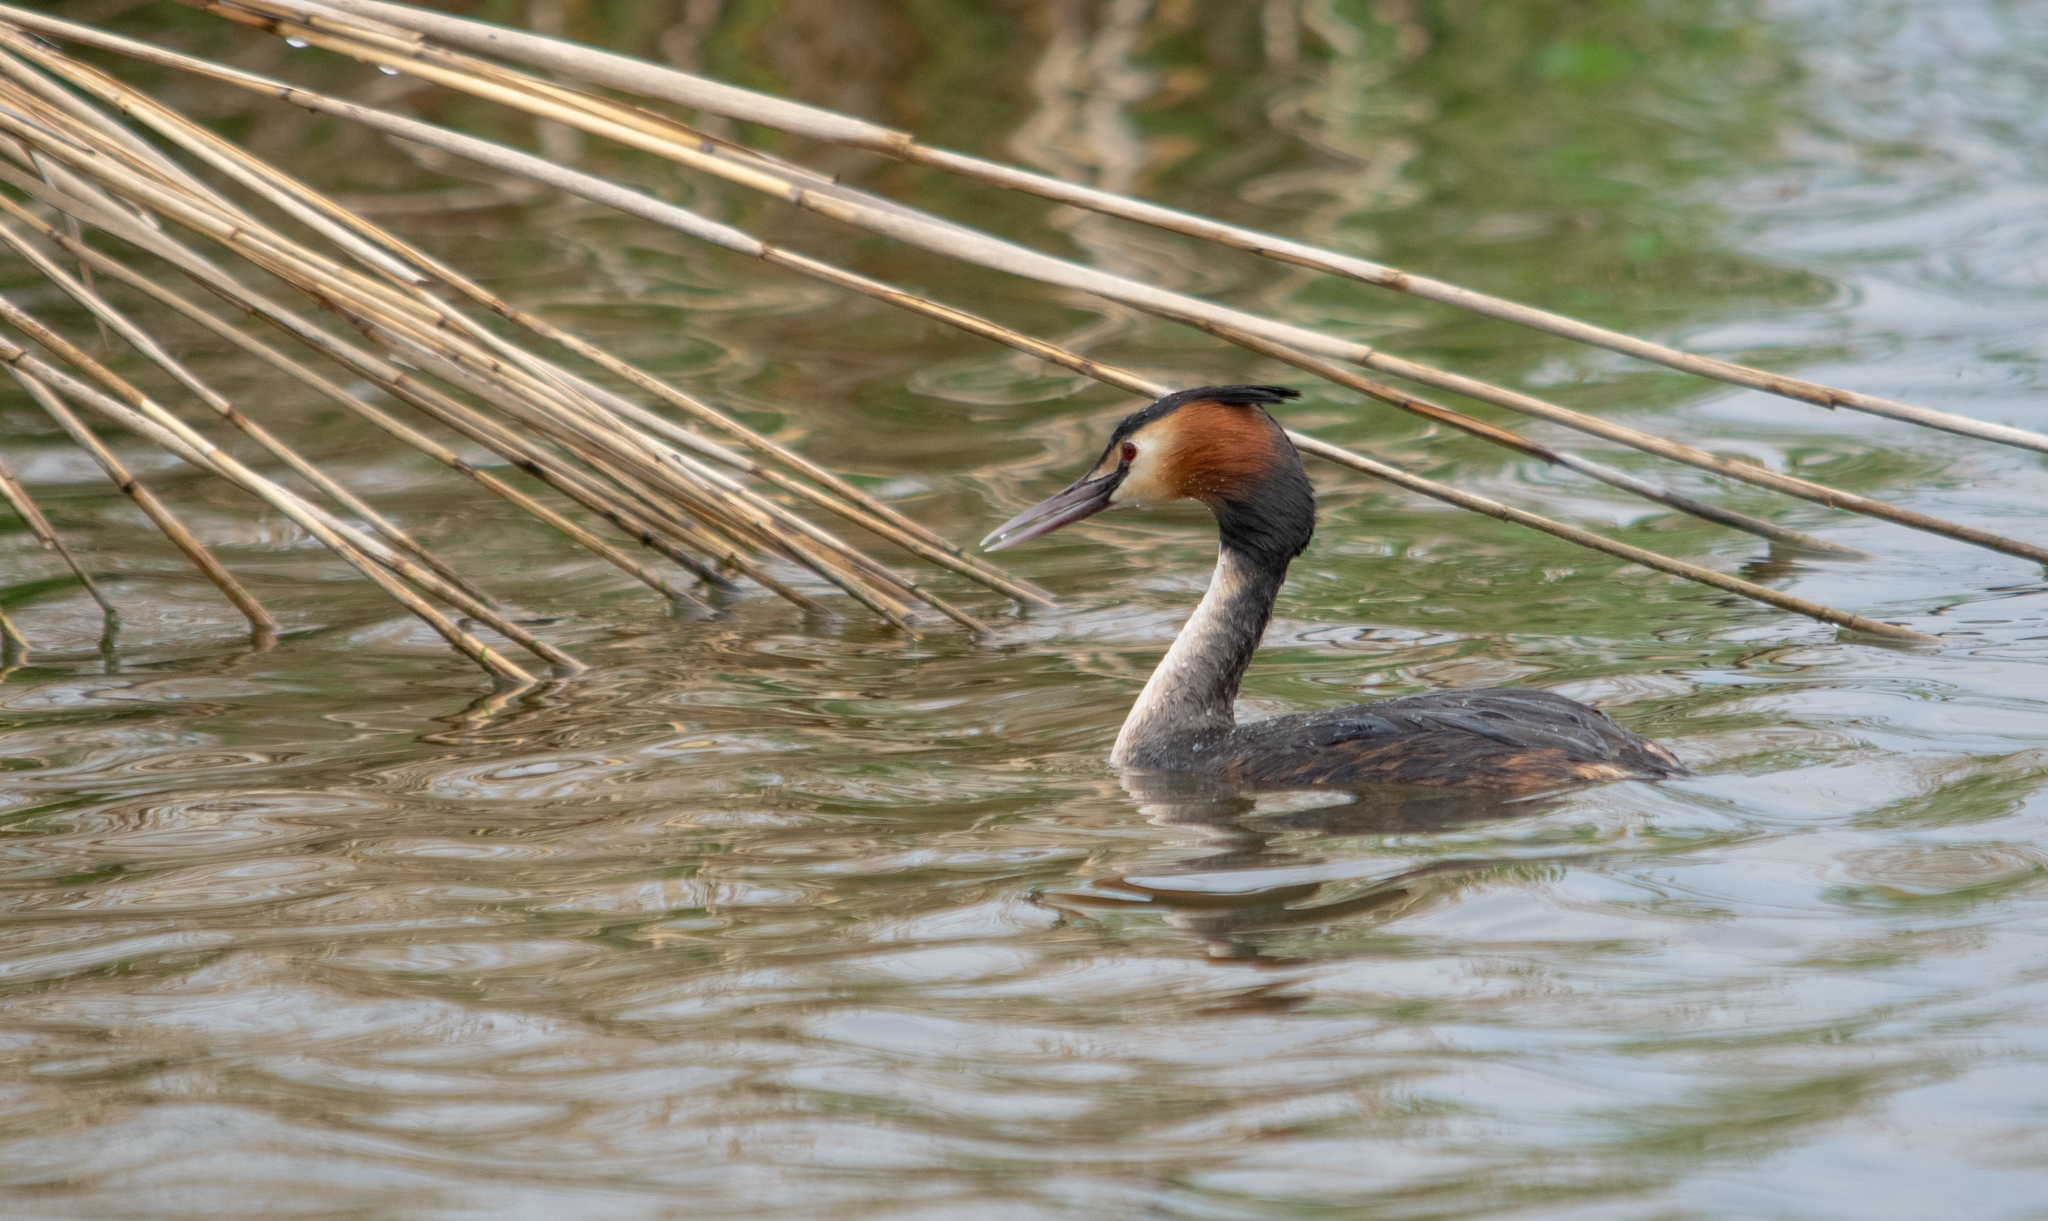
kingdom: Animalia
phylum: Chordata
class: Aves
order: Podicipediformes
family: Podicipedidae
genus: Podiceps
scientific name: Podiceps cristatus
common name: Great crested grebe
